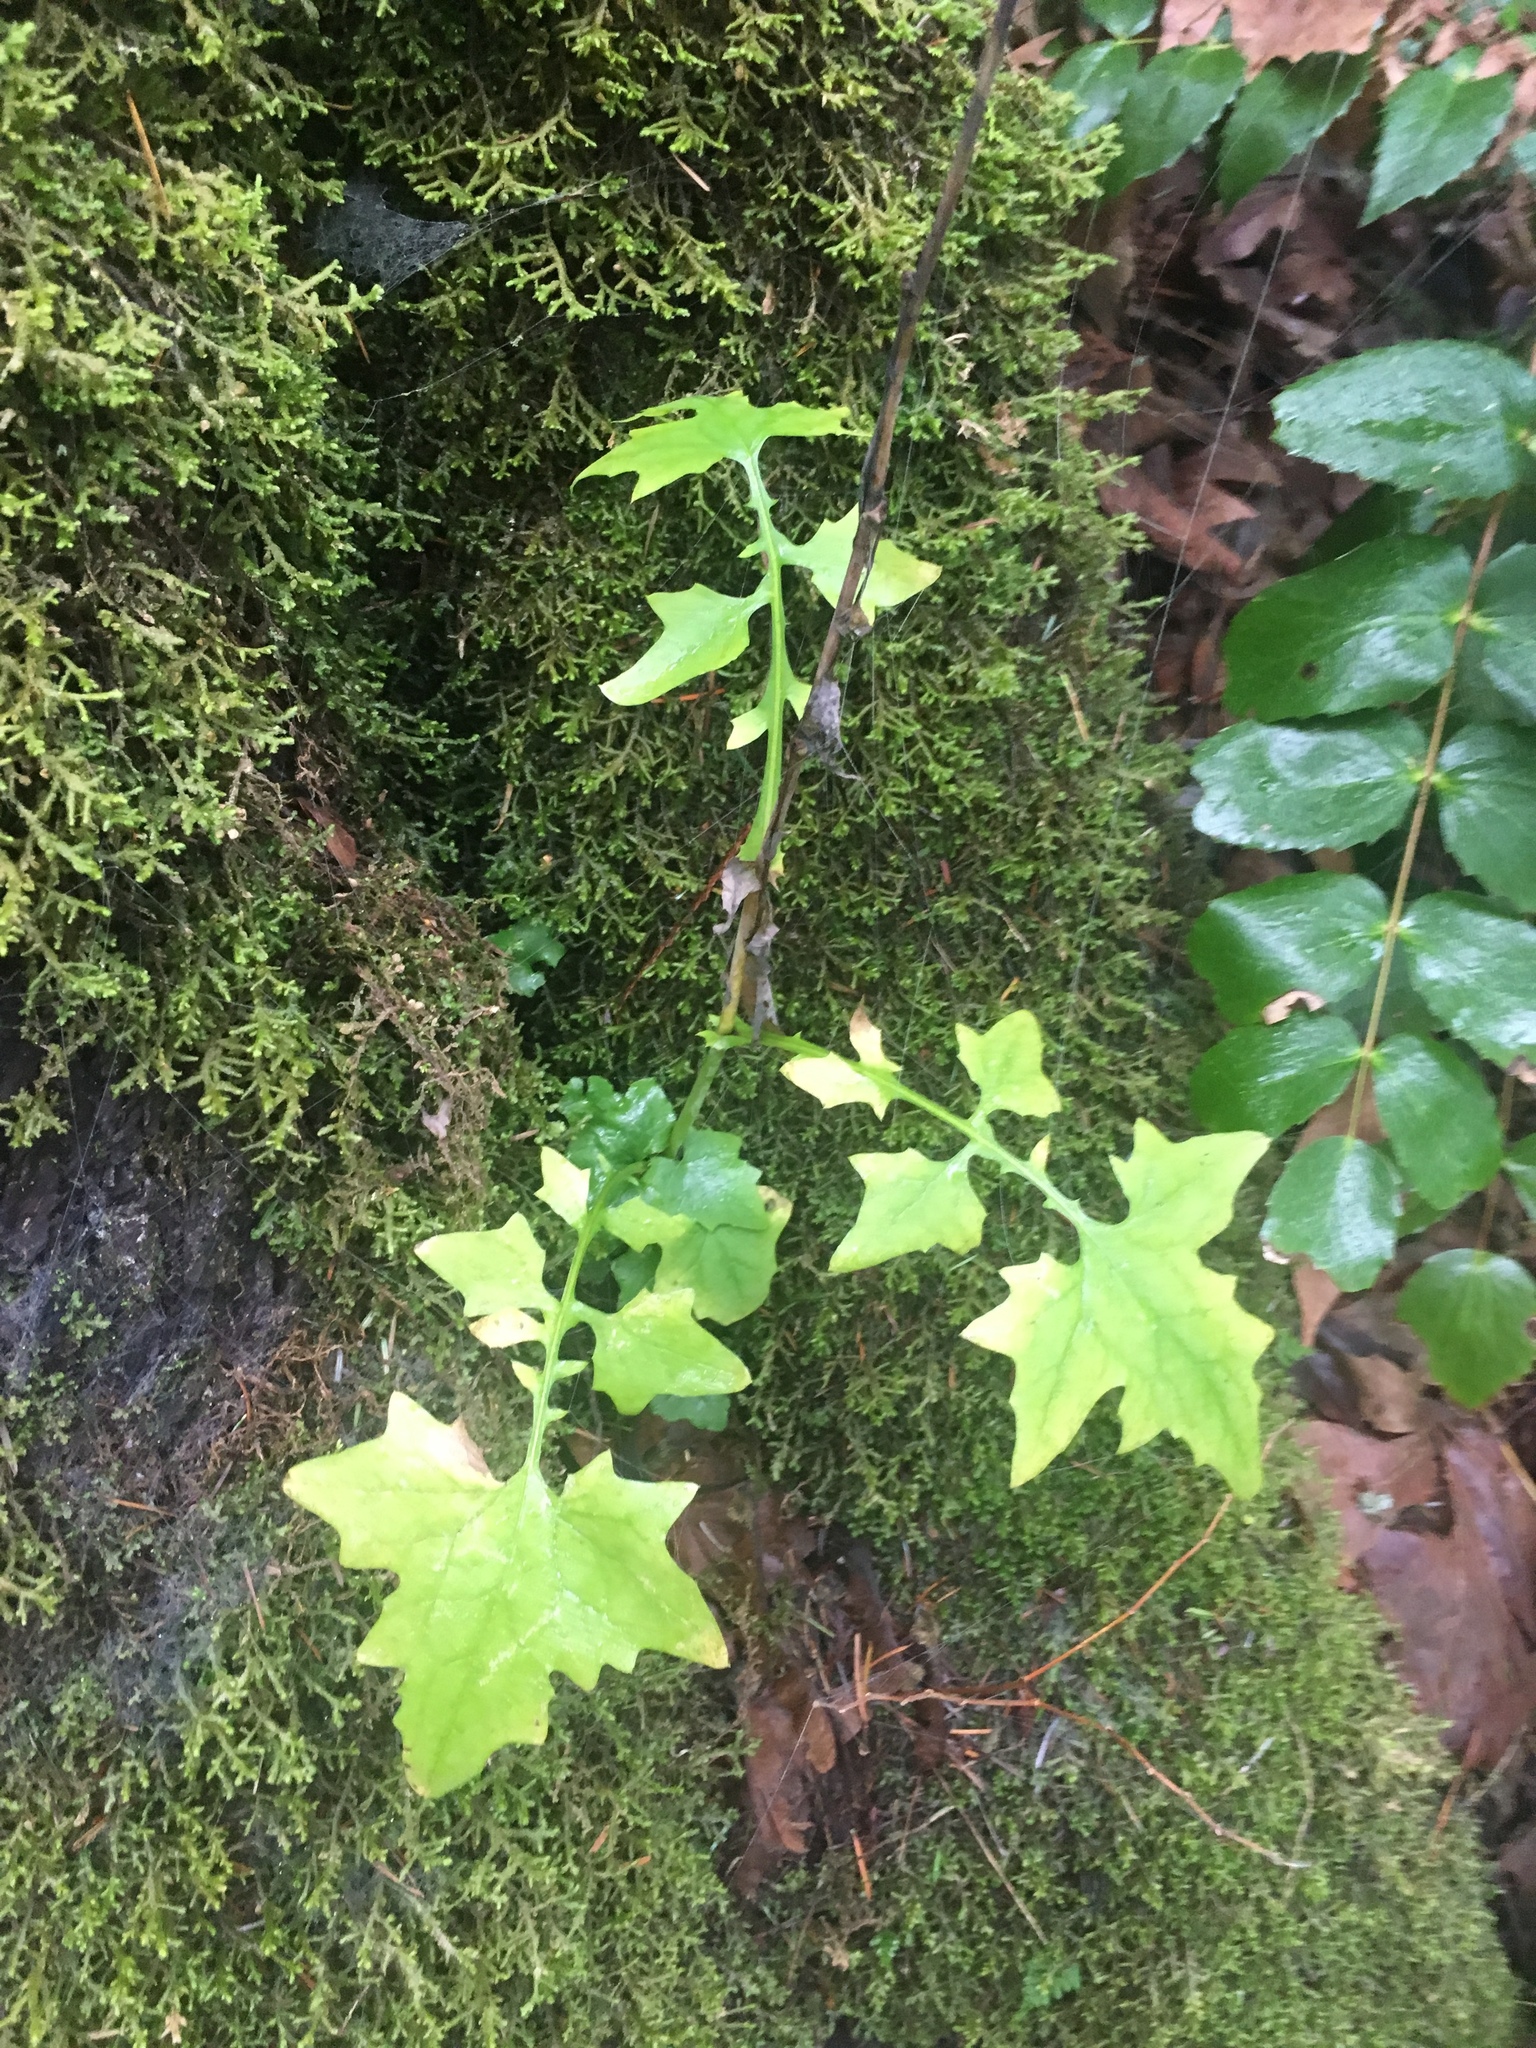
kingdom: Plantae
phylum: Tracheophyta
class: Magnoliopsida
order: Asterales
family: Asteraceae
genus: Mycelis
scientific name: Mycelis muralis
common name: Wall lettuce
